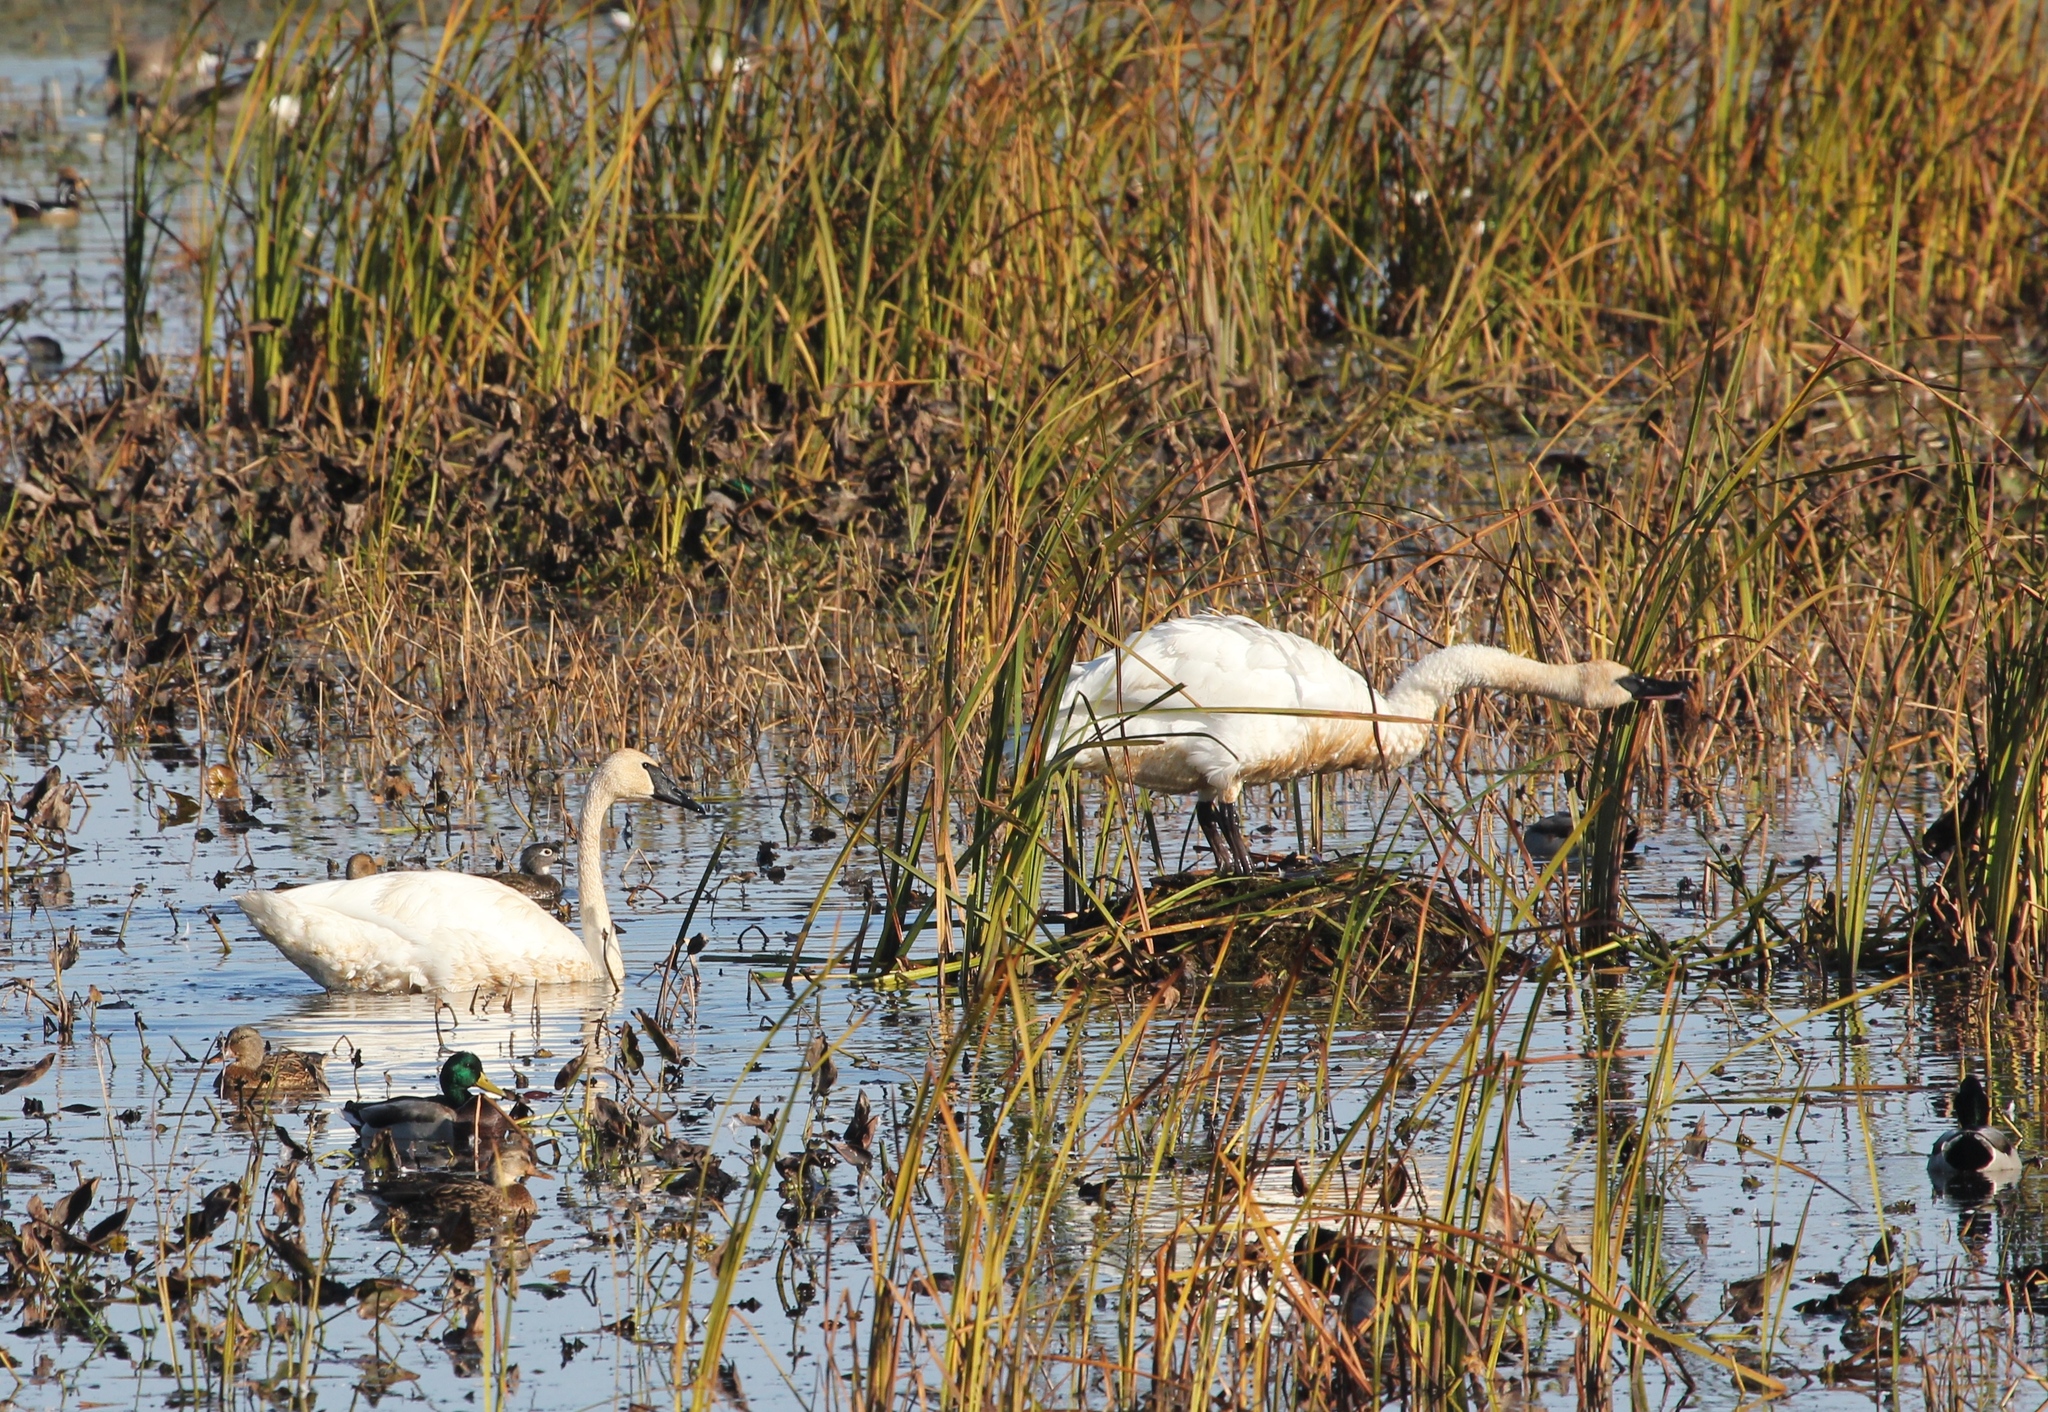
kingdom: Animalia
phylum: Chordata
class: Aves
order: Anseriformes
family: Anatidae
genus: Cygnus
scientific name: Cygnus buccinator
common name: Trumpeter swan
